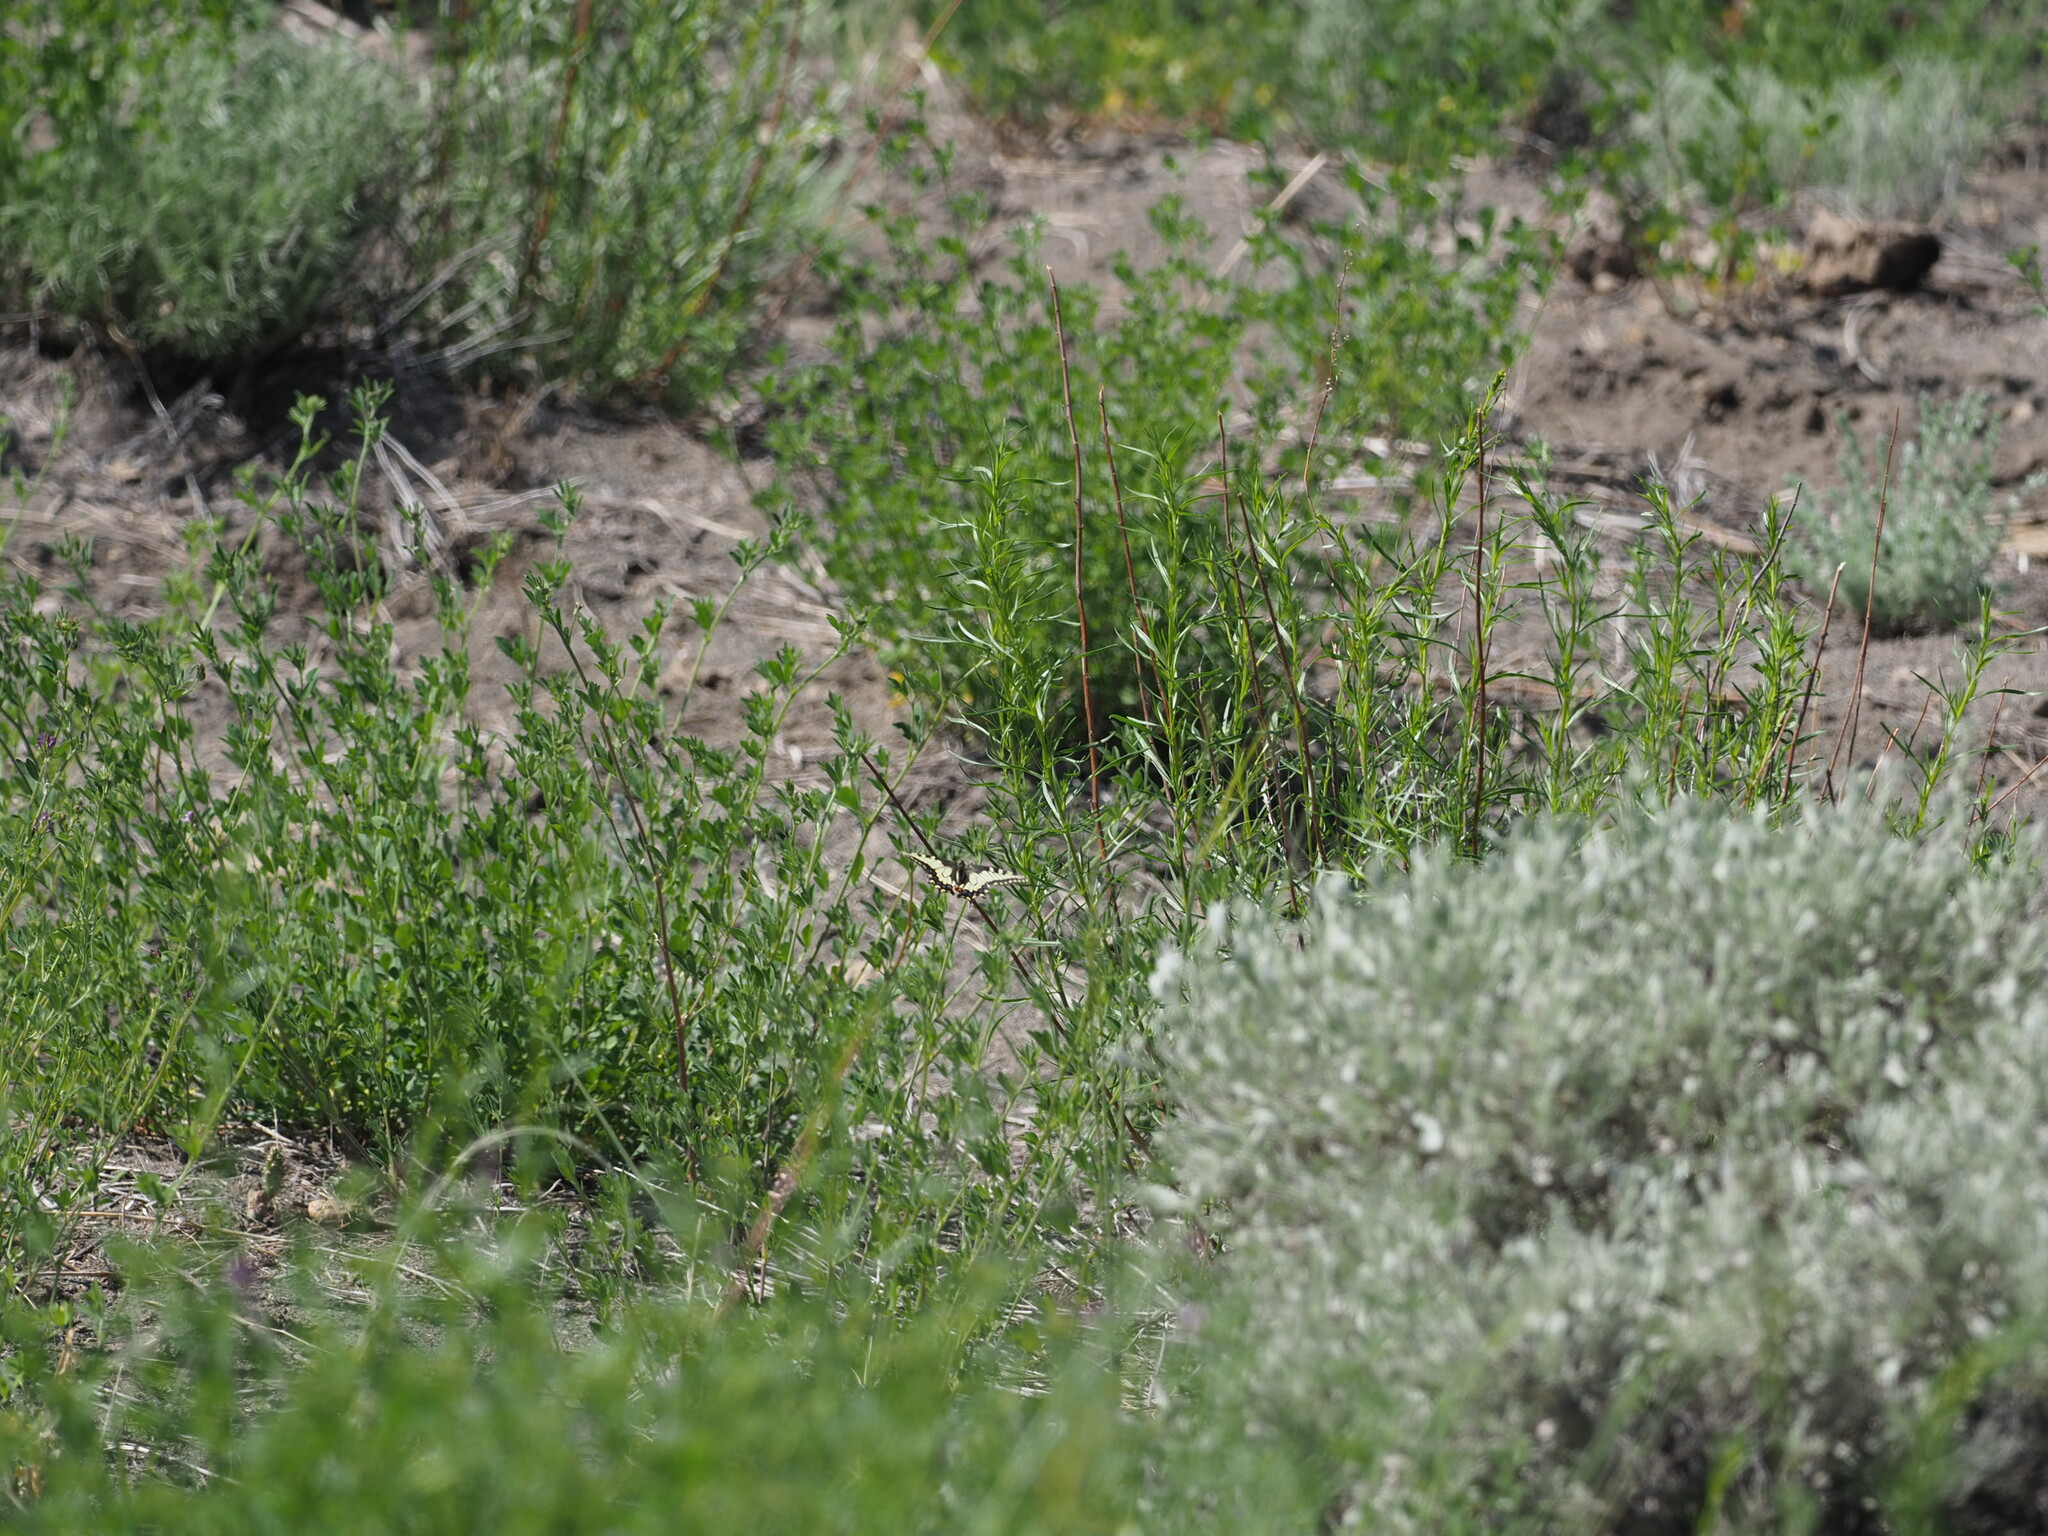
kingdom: Animalia
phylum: Arthropoda
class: Insecta
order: Lepidoptera
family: Papilionidae
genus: Papilio
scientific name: Papilio
